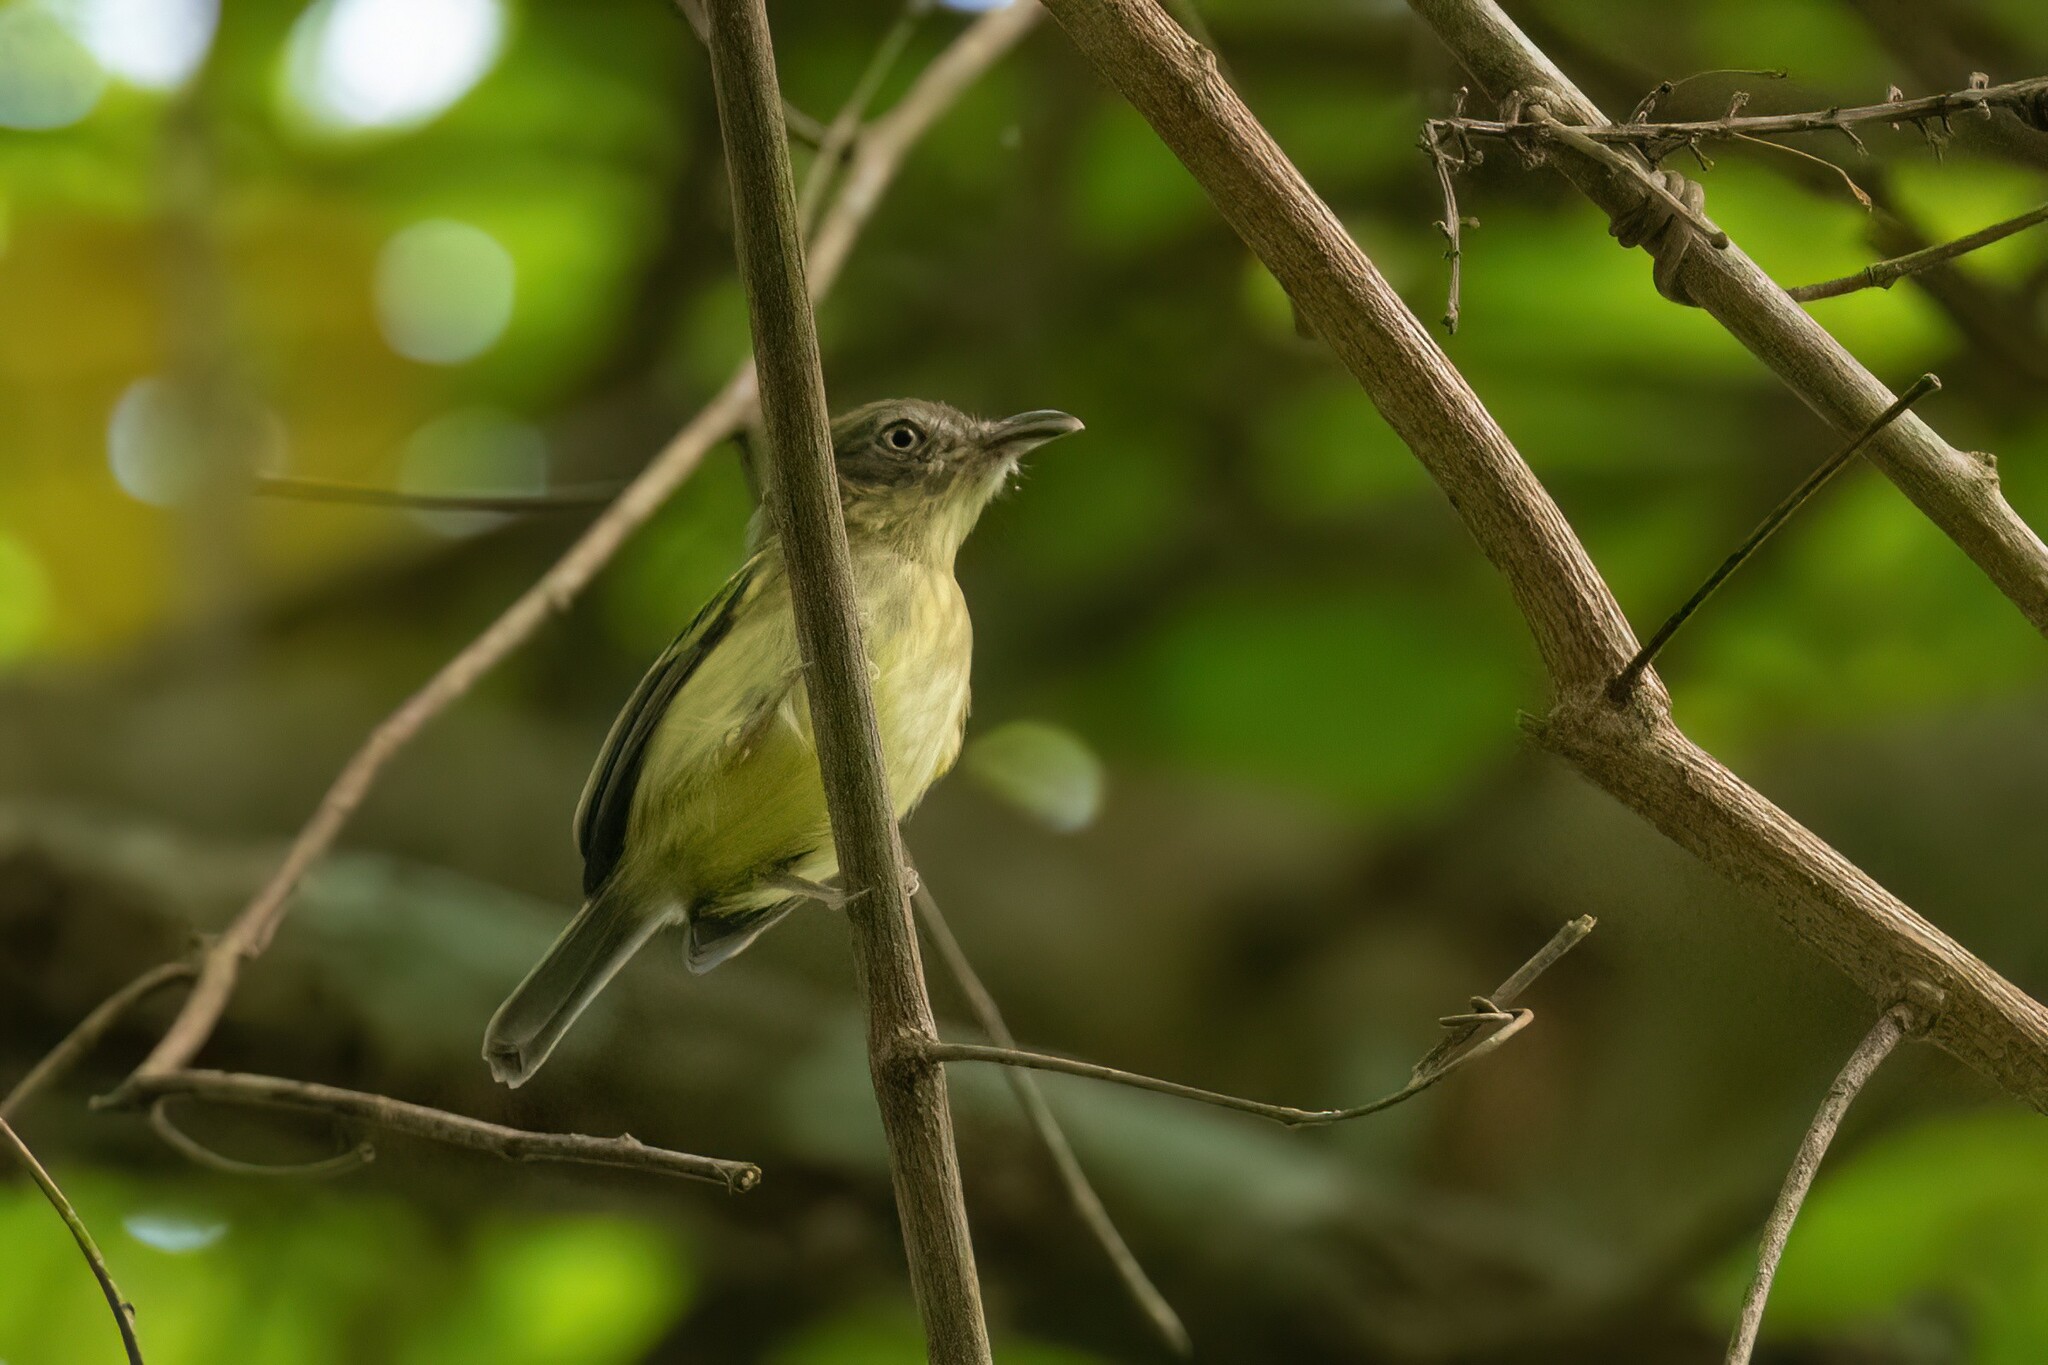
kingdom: Animalia
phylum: Chordata
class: Aves
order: Passeriformes
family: Tyrannidae
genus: Oncostoma
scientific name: Oncostoma olivaceum
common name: Southern bentbill
